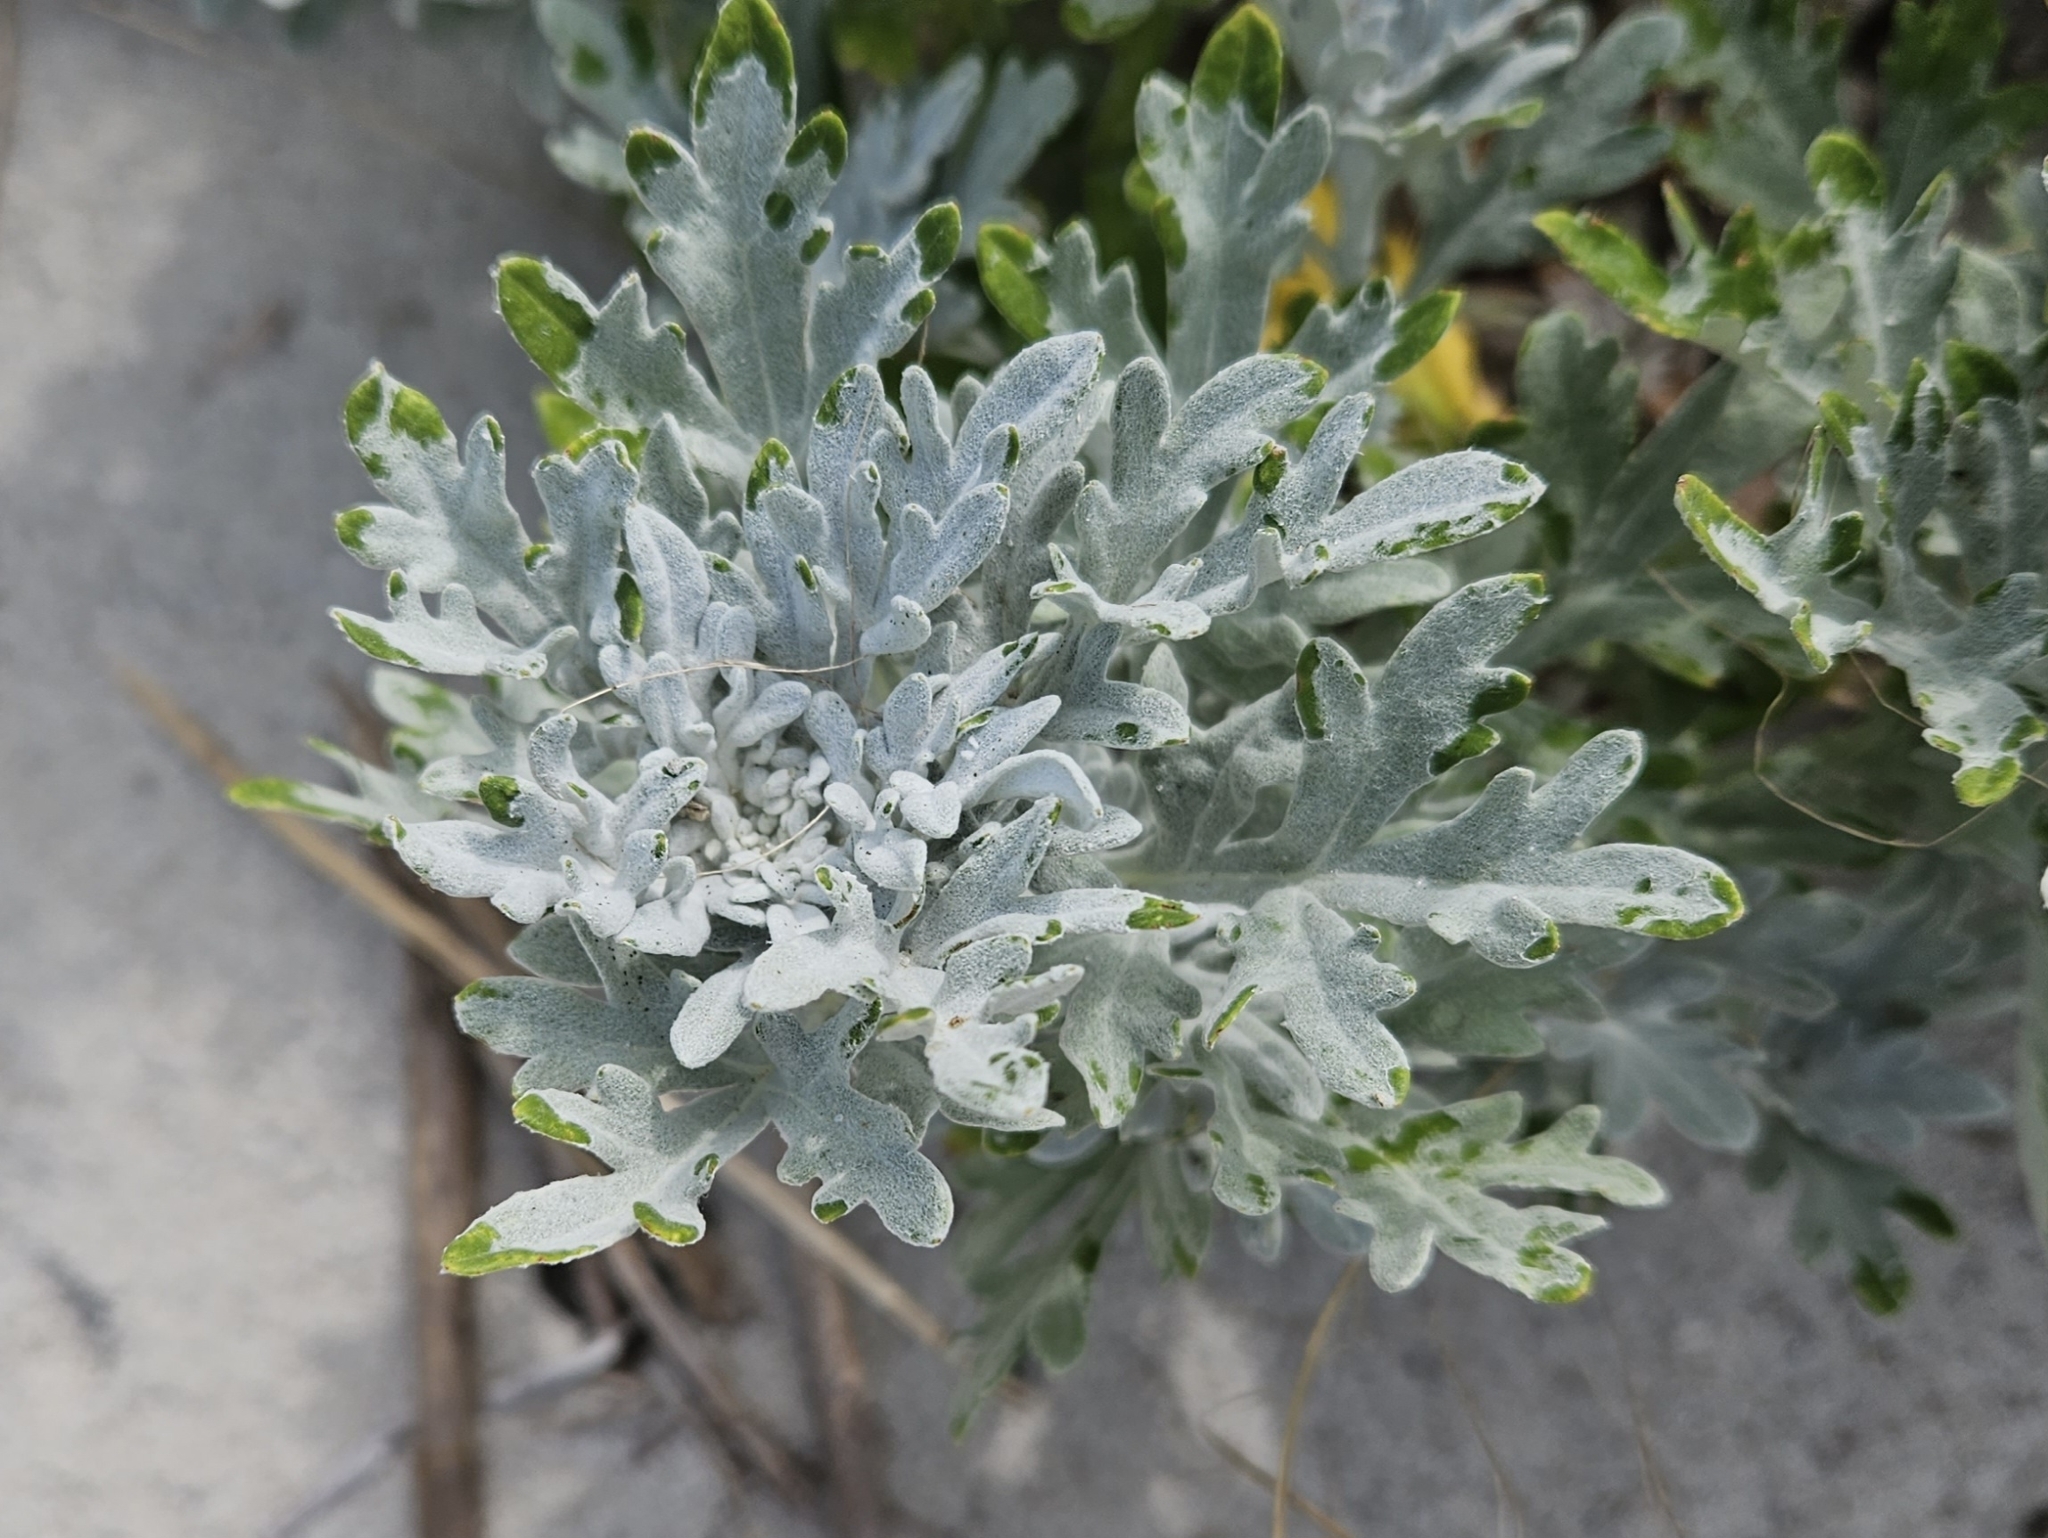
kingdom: Plantae
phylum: Tracheophyta
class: Magnoliopsida
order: Asterales
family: Asteraceae
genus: Artemisia
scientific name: Artemisia stelleriana
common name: Beach wormwood
